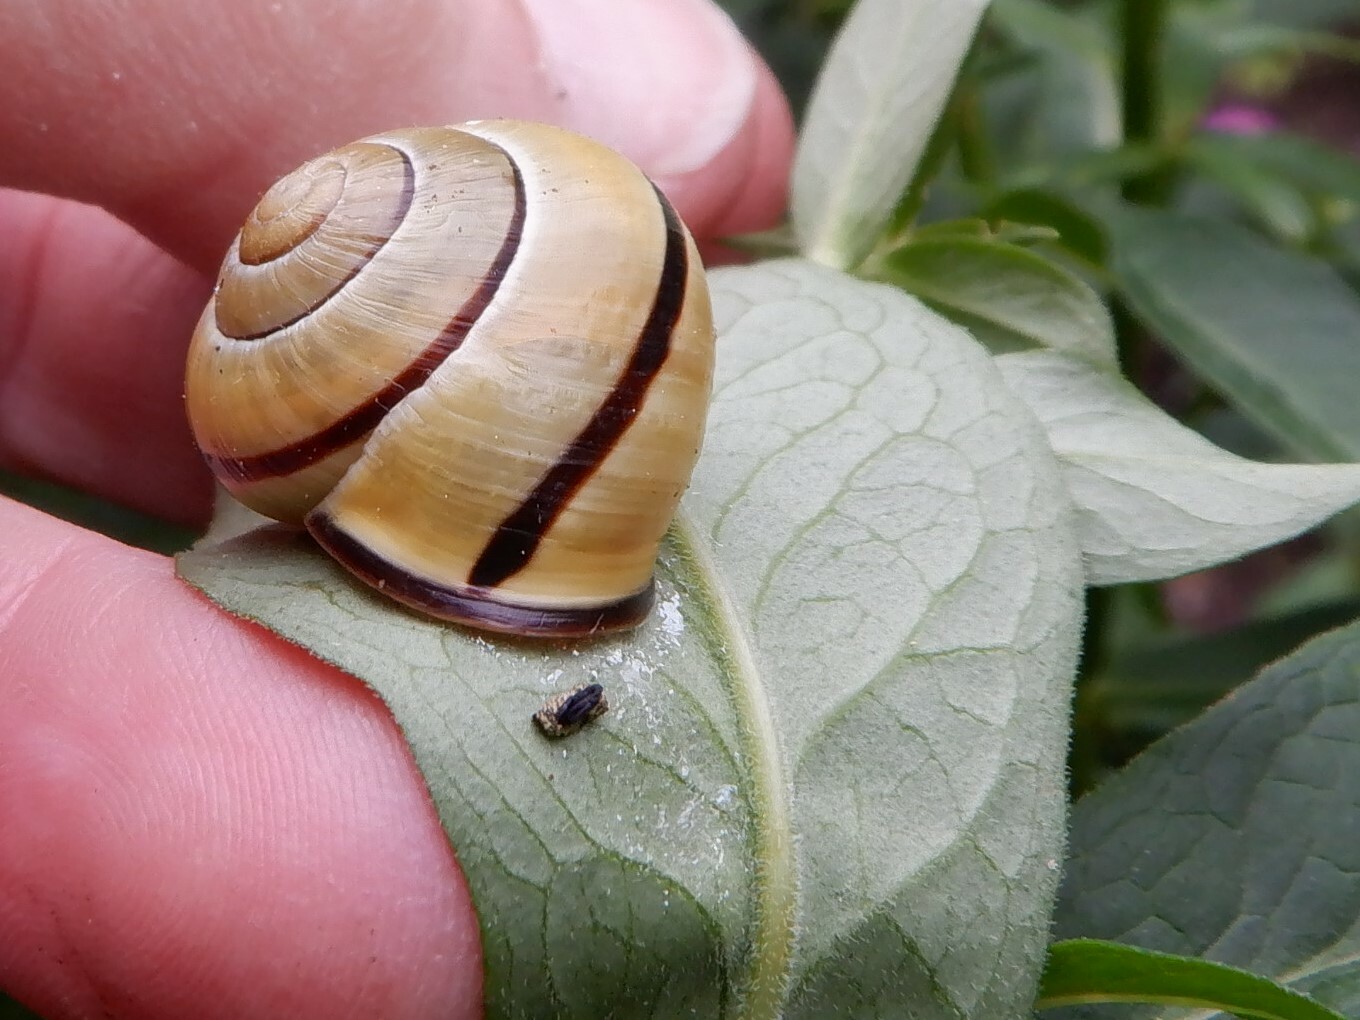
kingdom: Animalia
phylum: Mollusca
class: Gastropoda
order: Stylommatophora
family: Helicidae
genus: Cepaea
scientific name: Cepaea nemoralis
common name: Grovesnail
